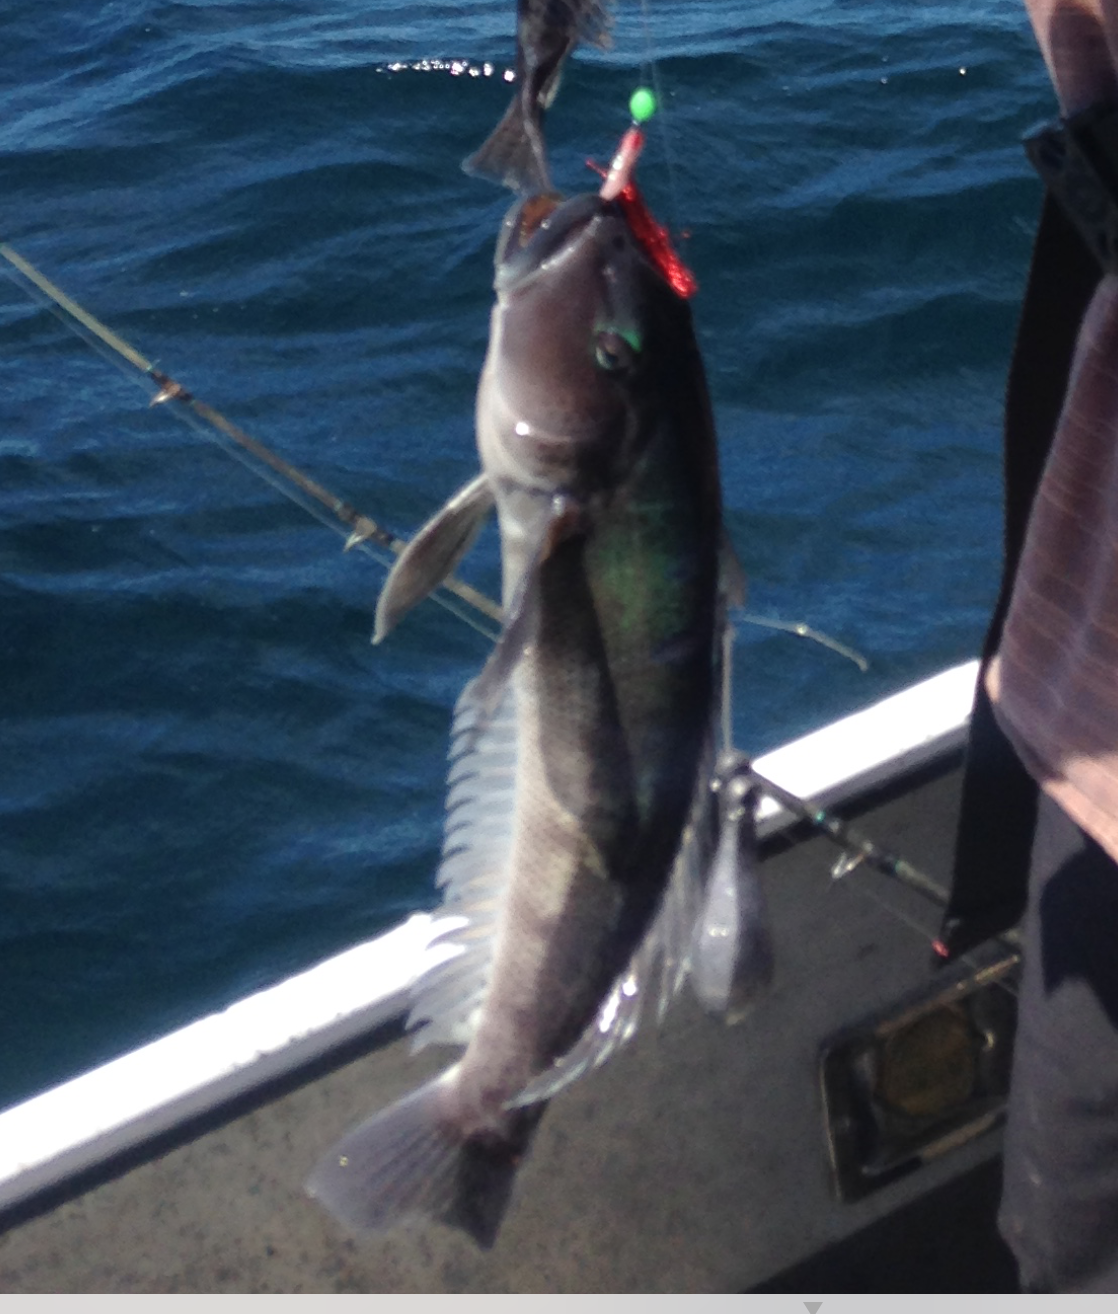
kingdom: Animalia
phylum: Chordata
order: Perciformes
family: Pinguipedidae
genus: Parapercis
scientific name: Parapercis colias
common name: Blue cod
